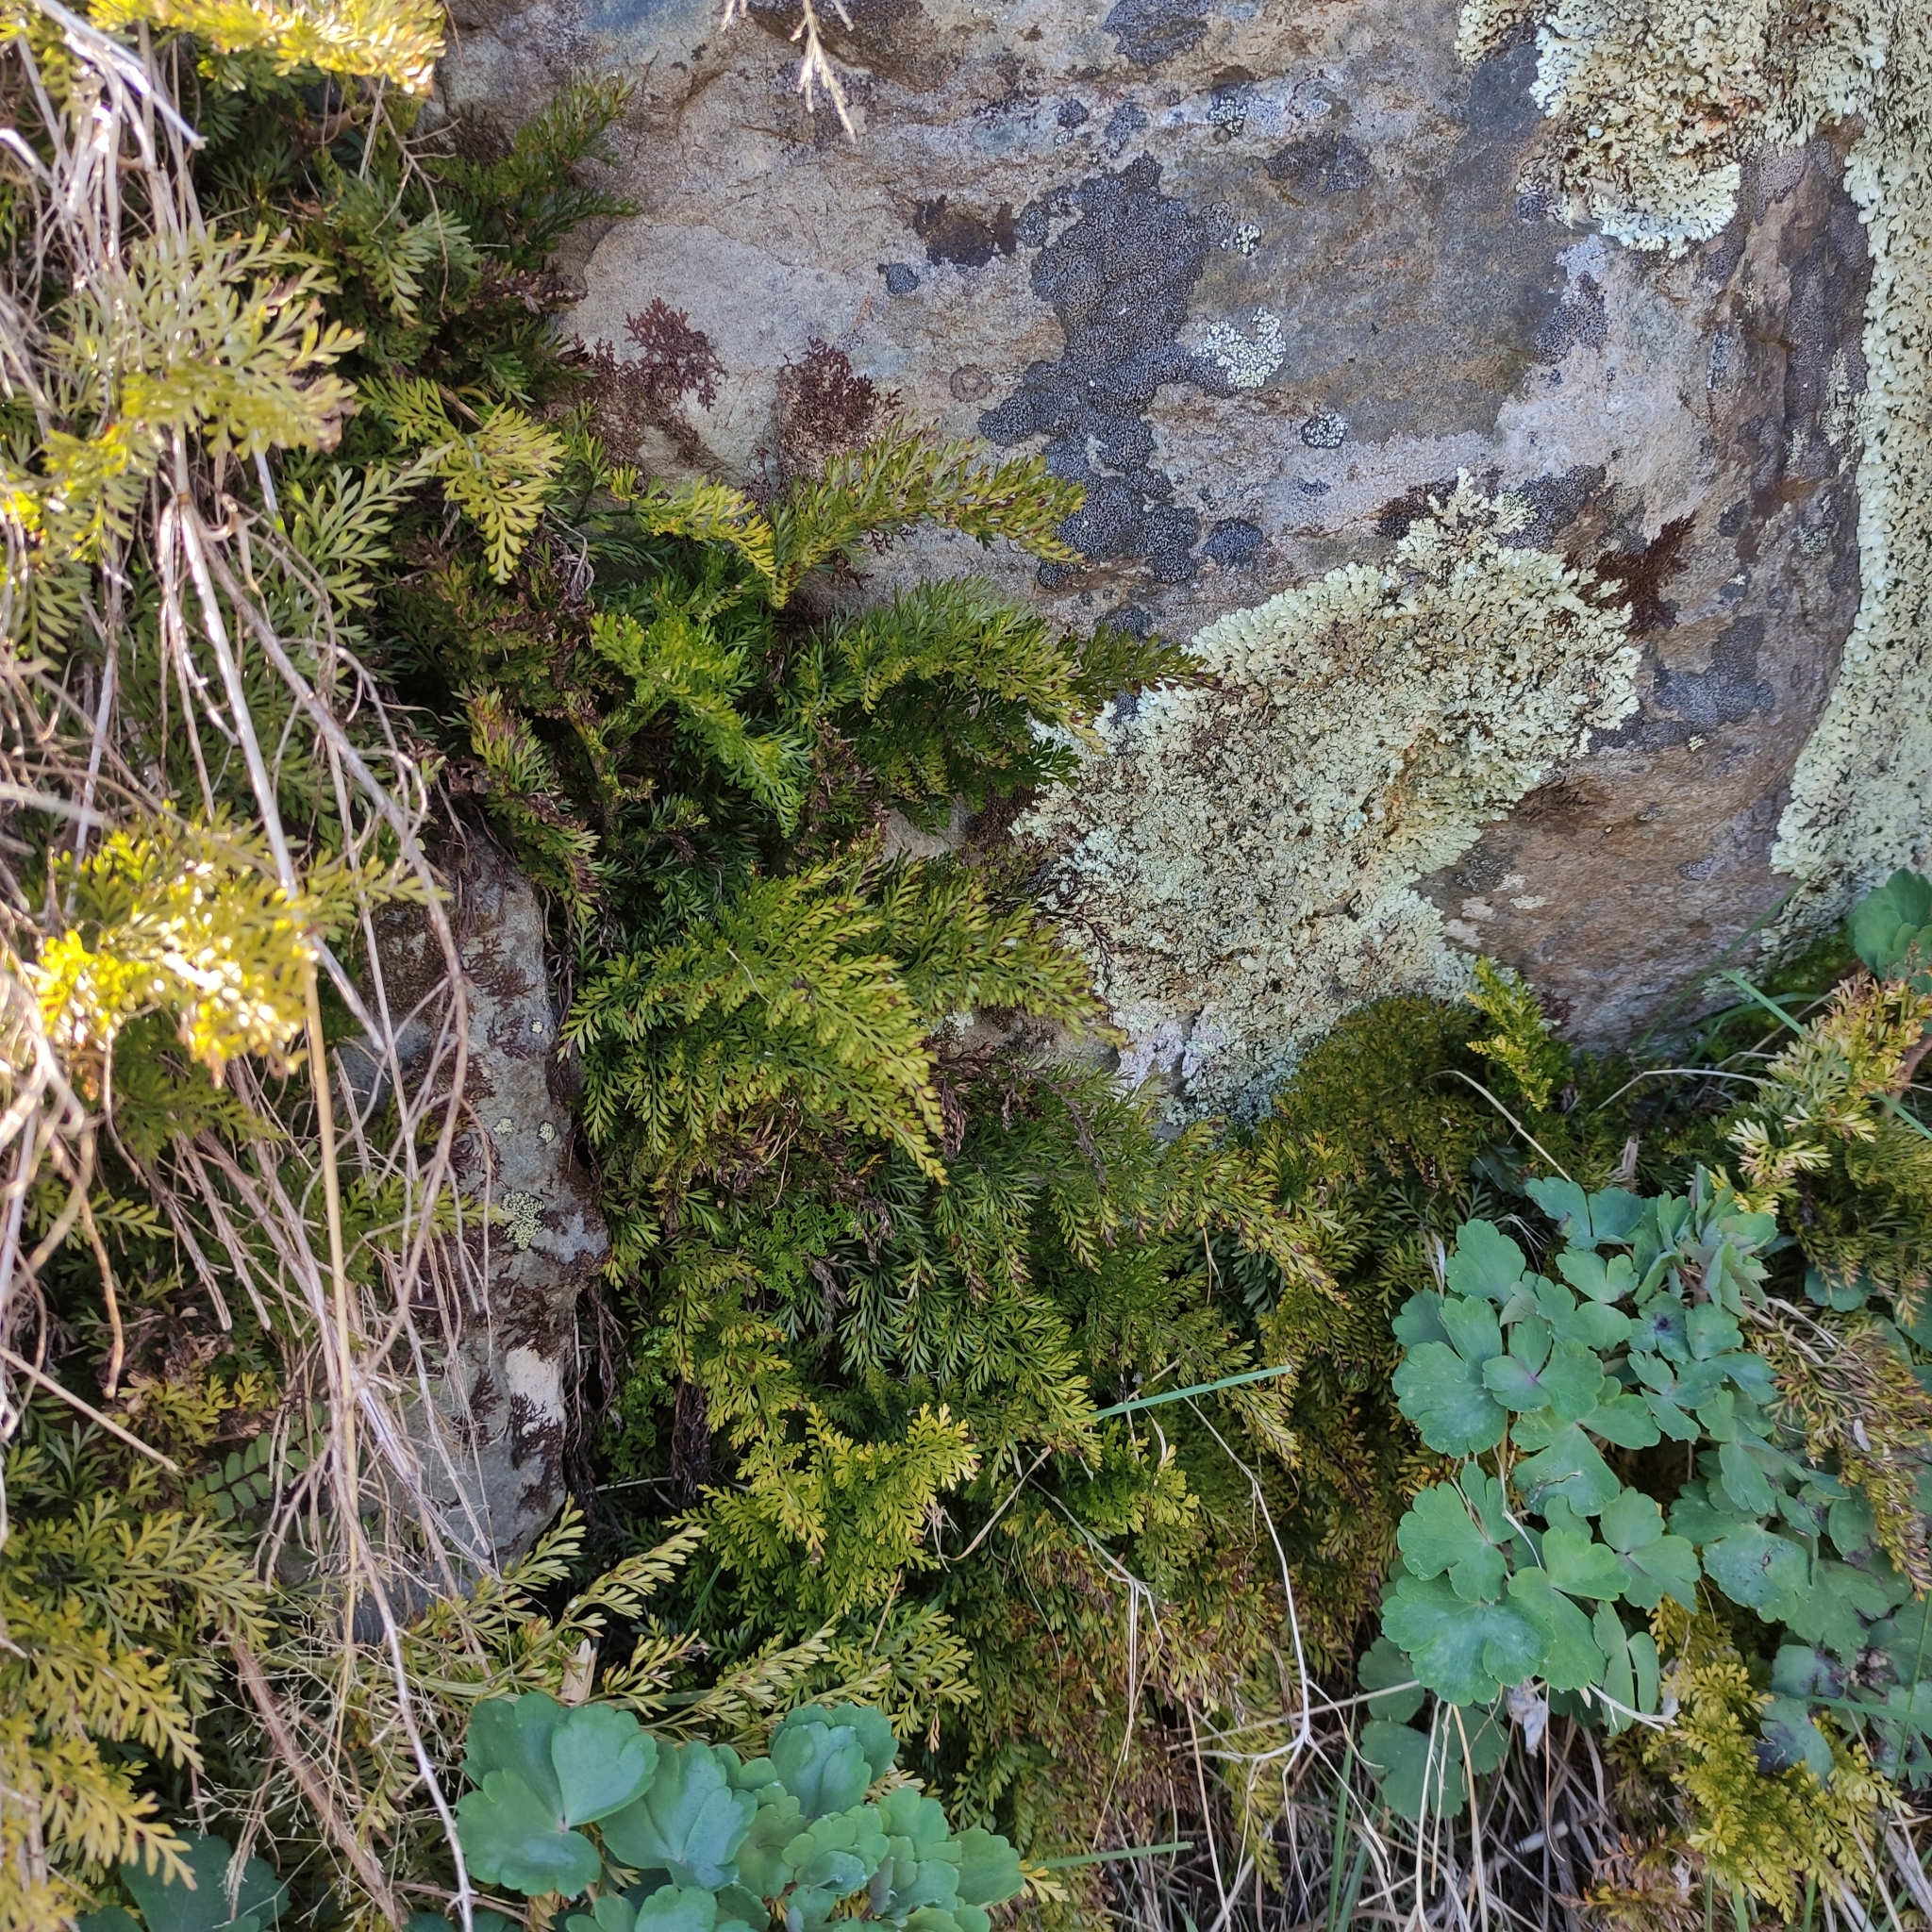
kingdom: Plantae
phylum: Tracheophyta
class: Polypodiopsida
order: Polypodiales
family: Aspleniaceae
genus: Asplenium
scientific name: Asplenium richardii
